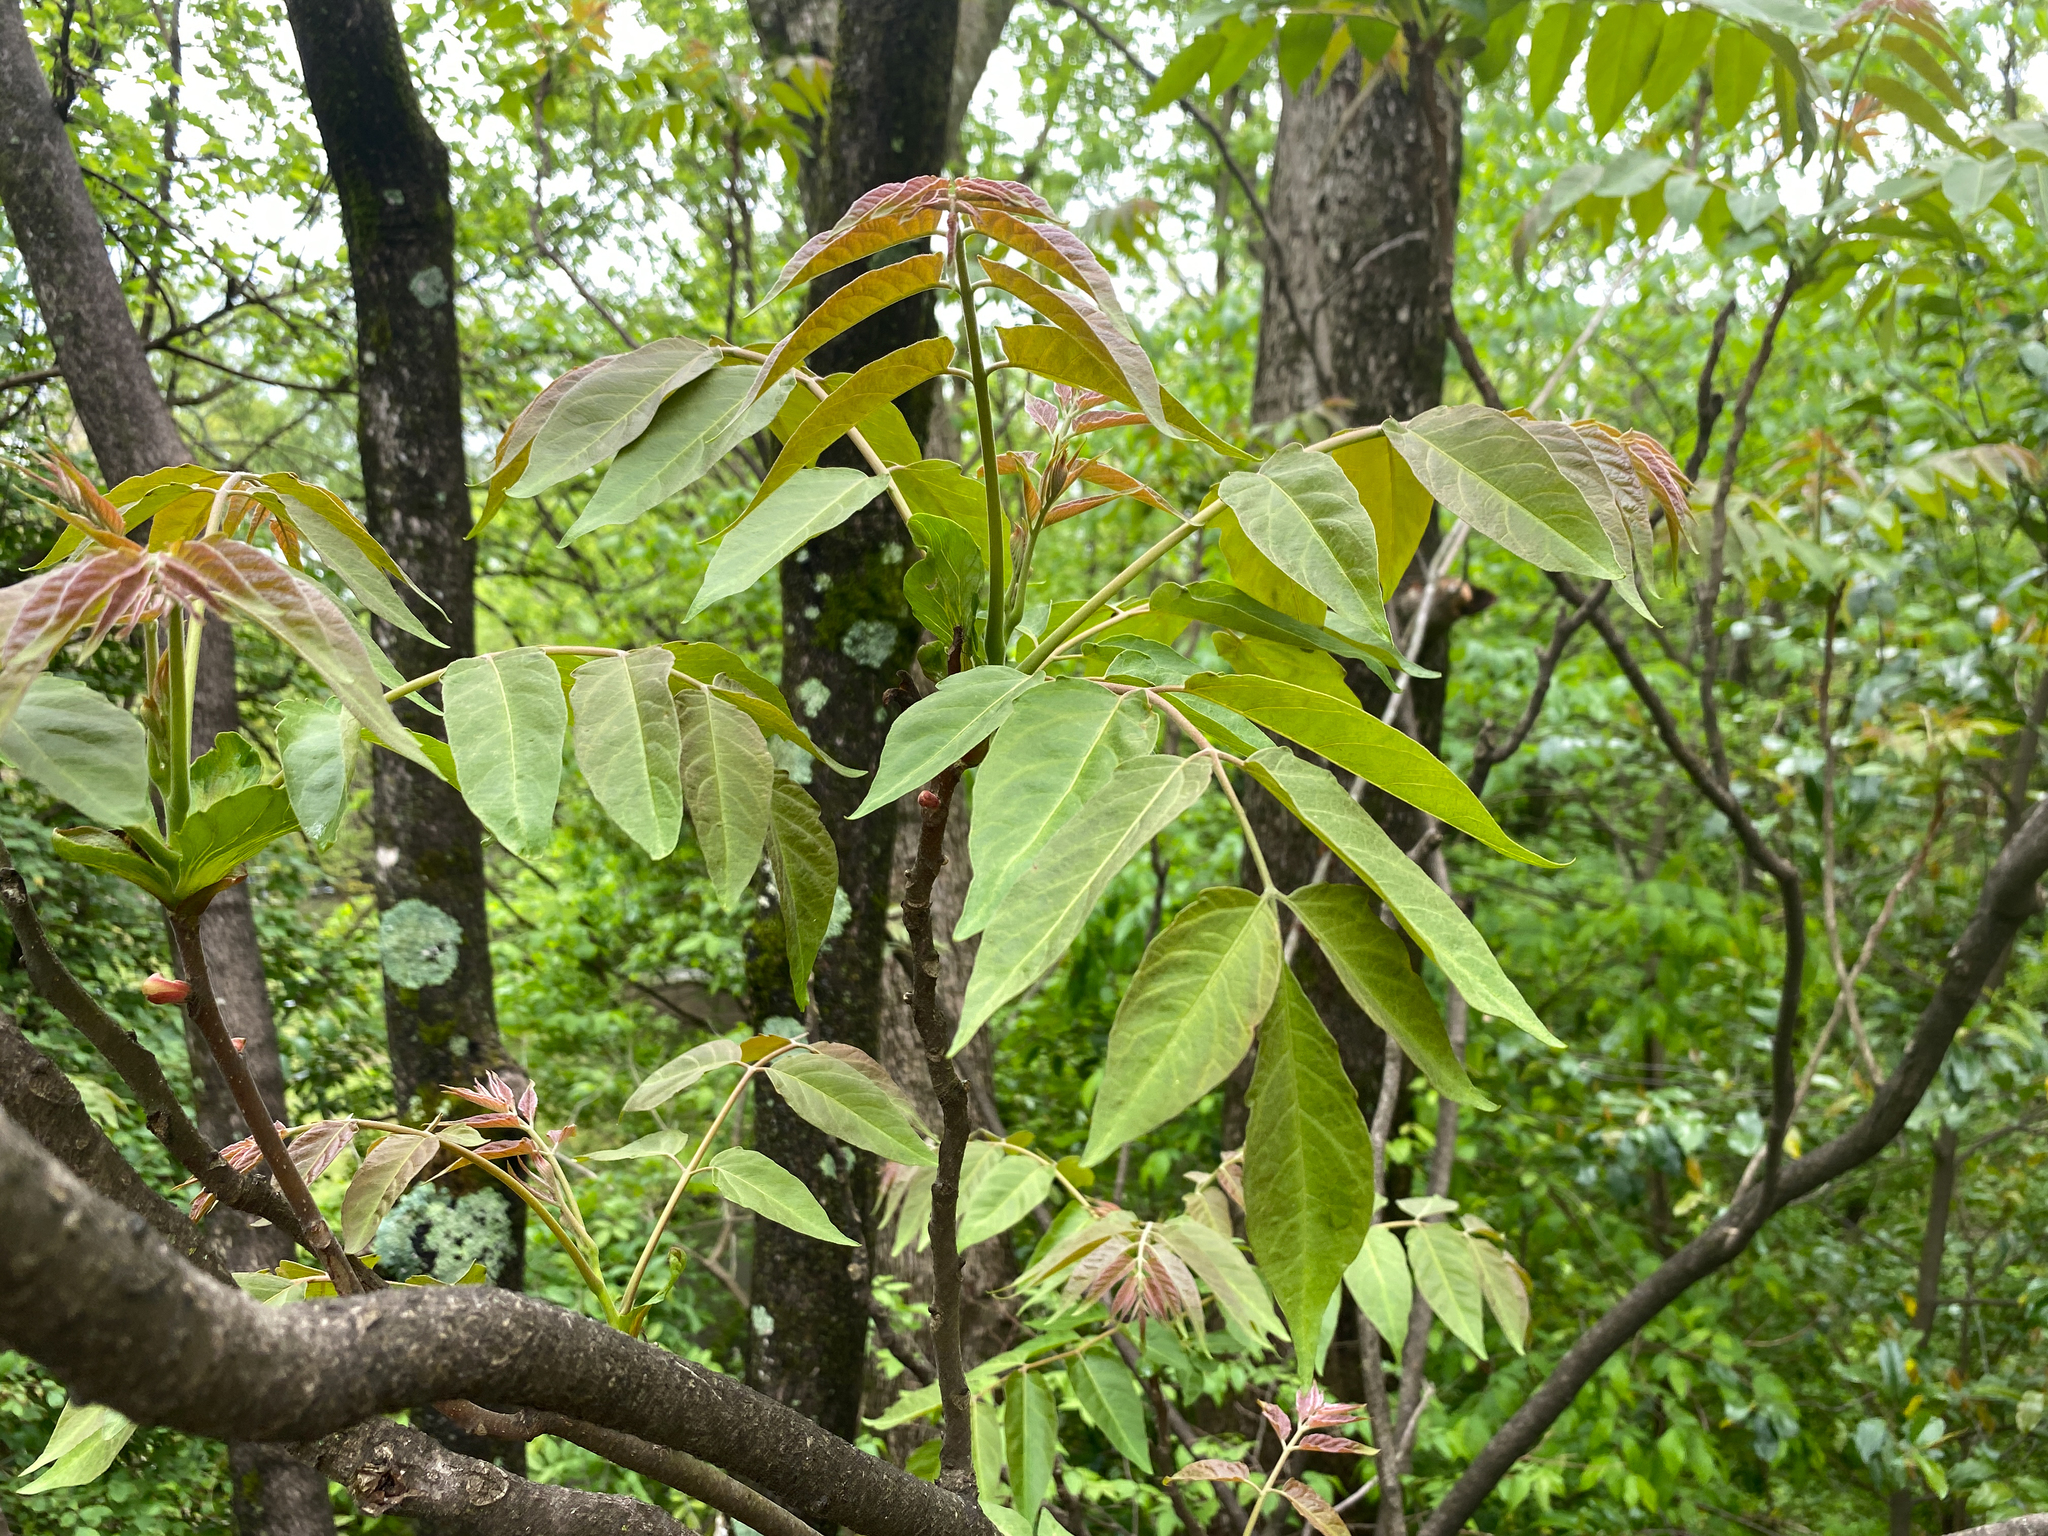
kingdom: Plantae
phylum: Tracheophyta
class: Magnoliopsida
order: Sapindales
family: Simaroubaceae
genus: Ailanthus
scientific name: Ailanthus altissima
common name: Tree-of-heaven
